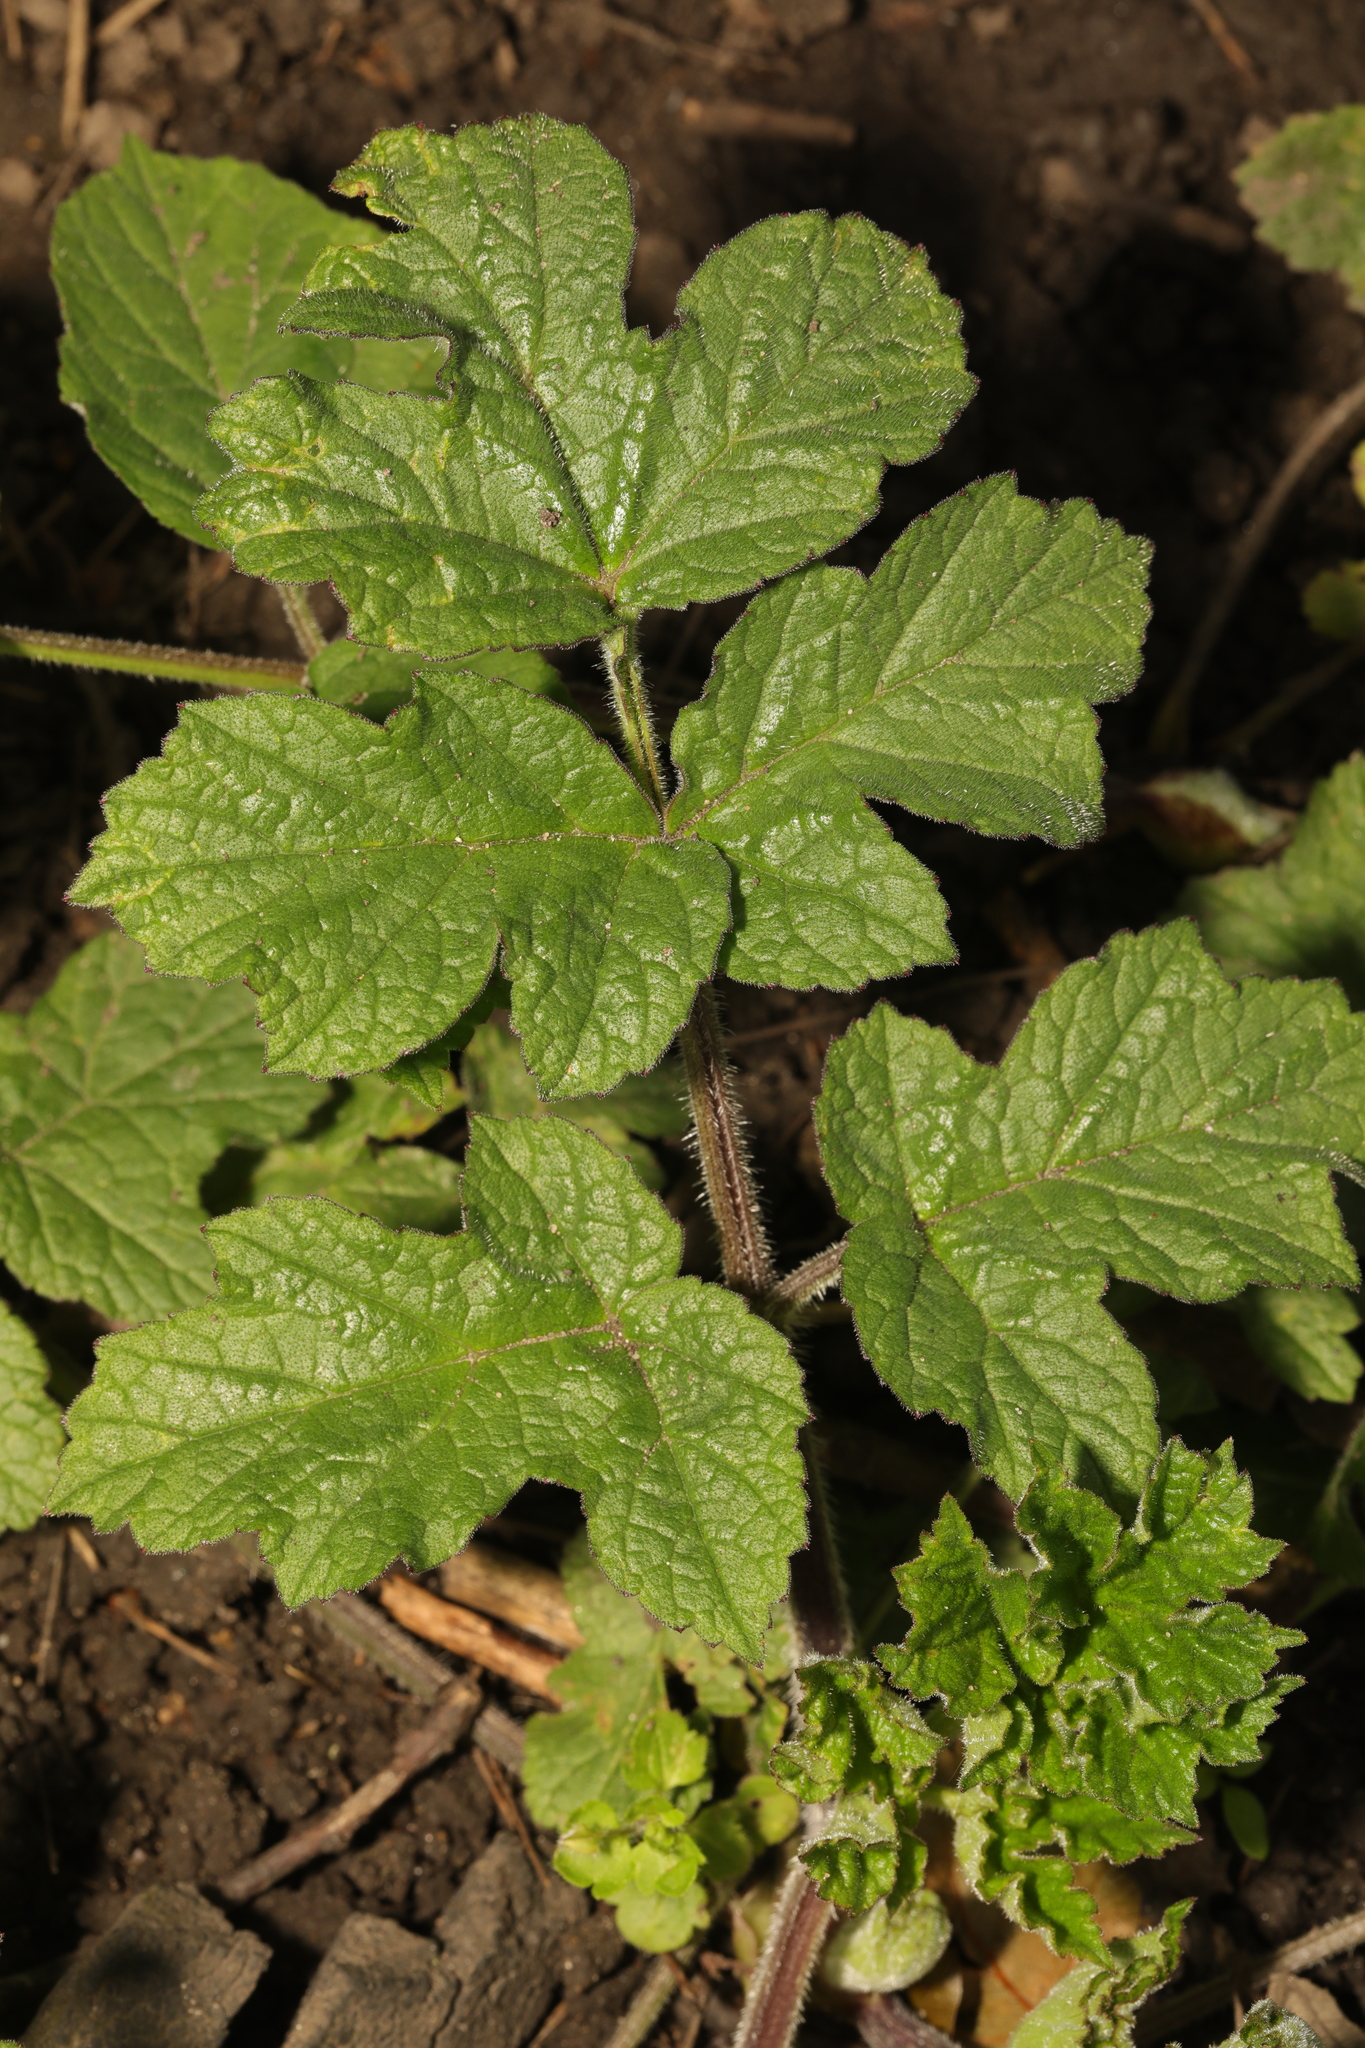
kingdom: Plantae
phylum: Tracheophyta
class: Magnoliopsida
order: Apiales
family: Apiaceae
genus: Heracleum
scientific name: Heracleum sphondylium
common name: Hogweed
